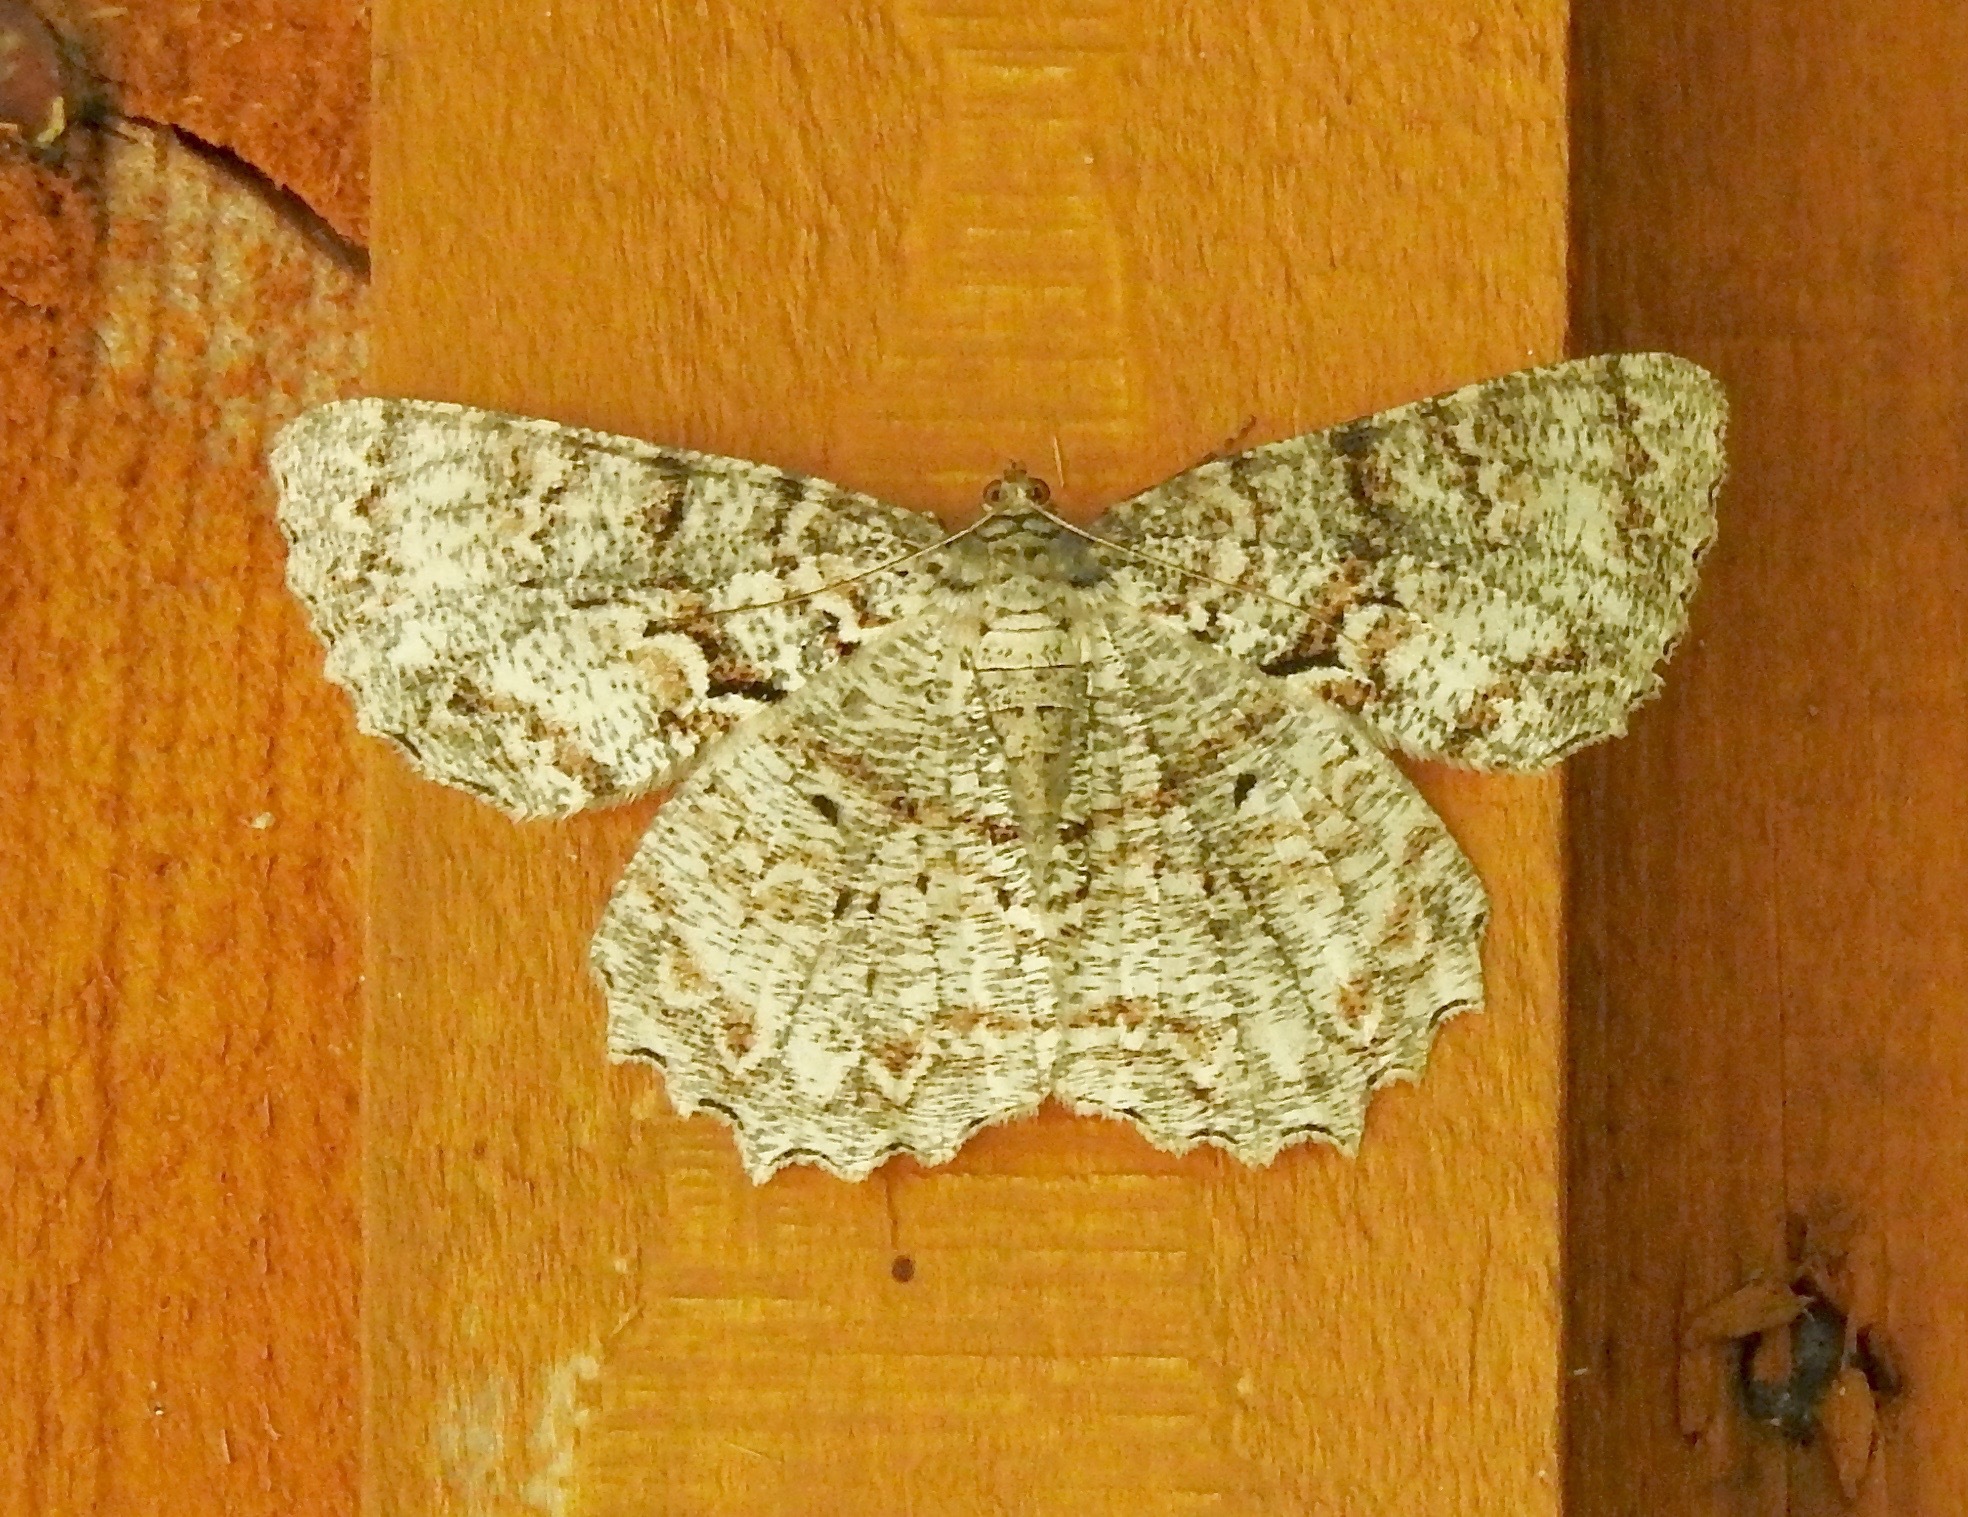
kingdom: Animalia
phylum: Arthropoda
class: Insecta
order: Lepidoptera
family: Geometridae
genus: Epimecis
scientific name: Epimecis hortaria
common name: Tulip-tree beauty
